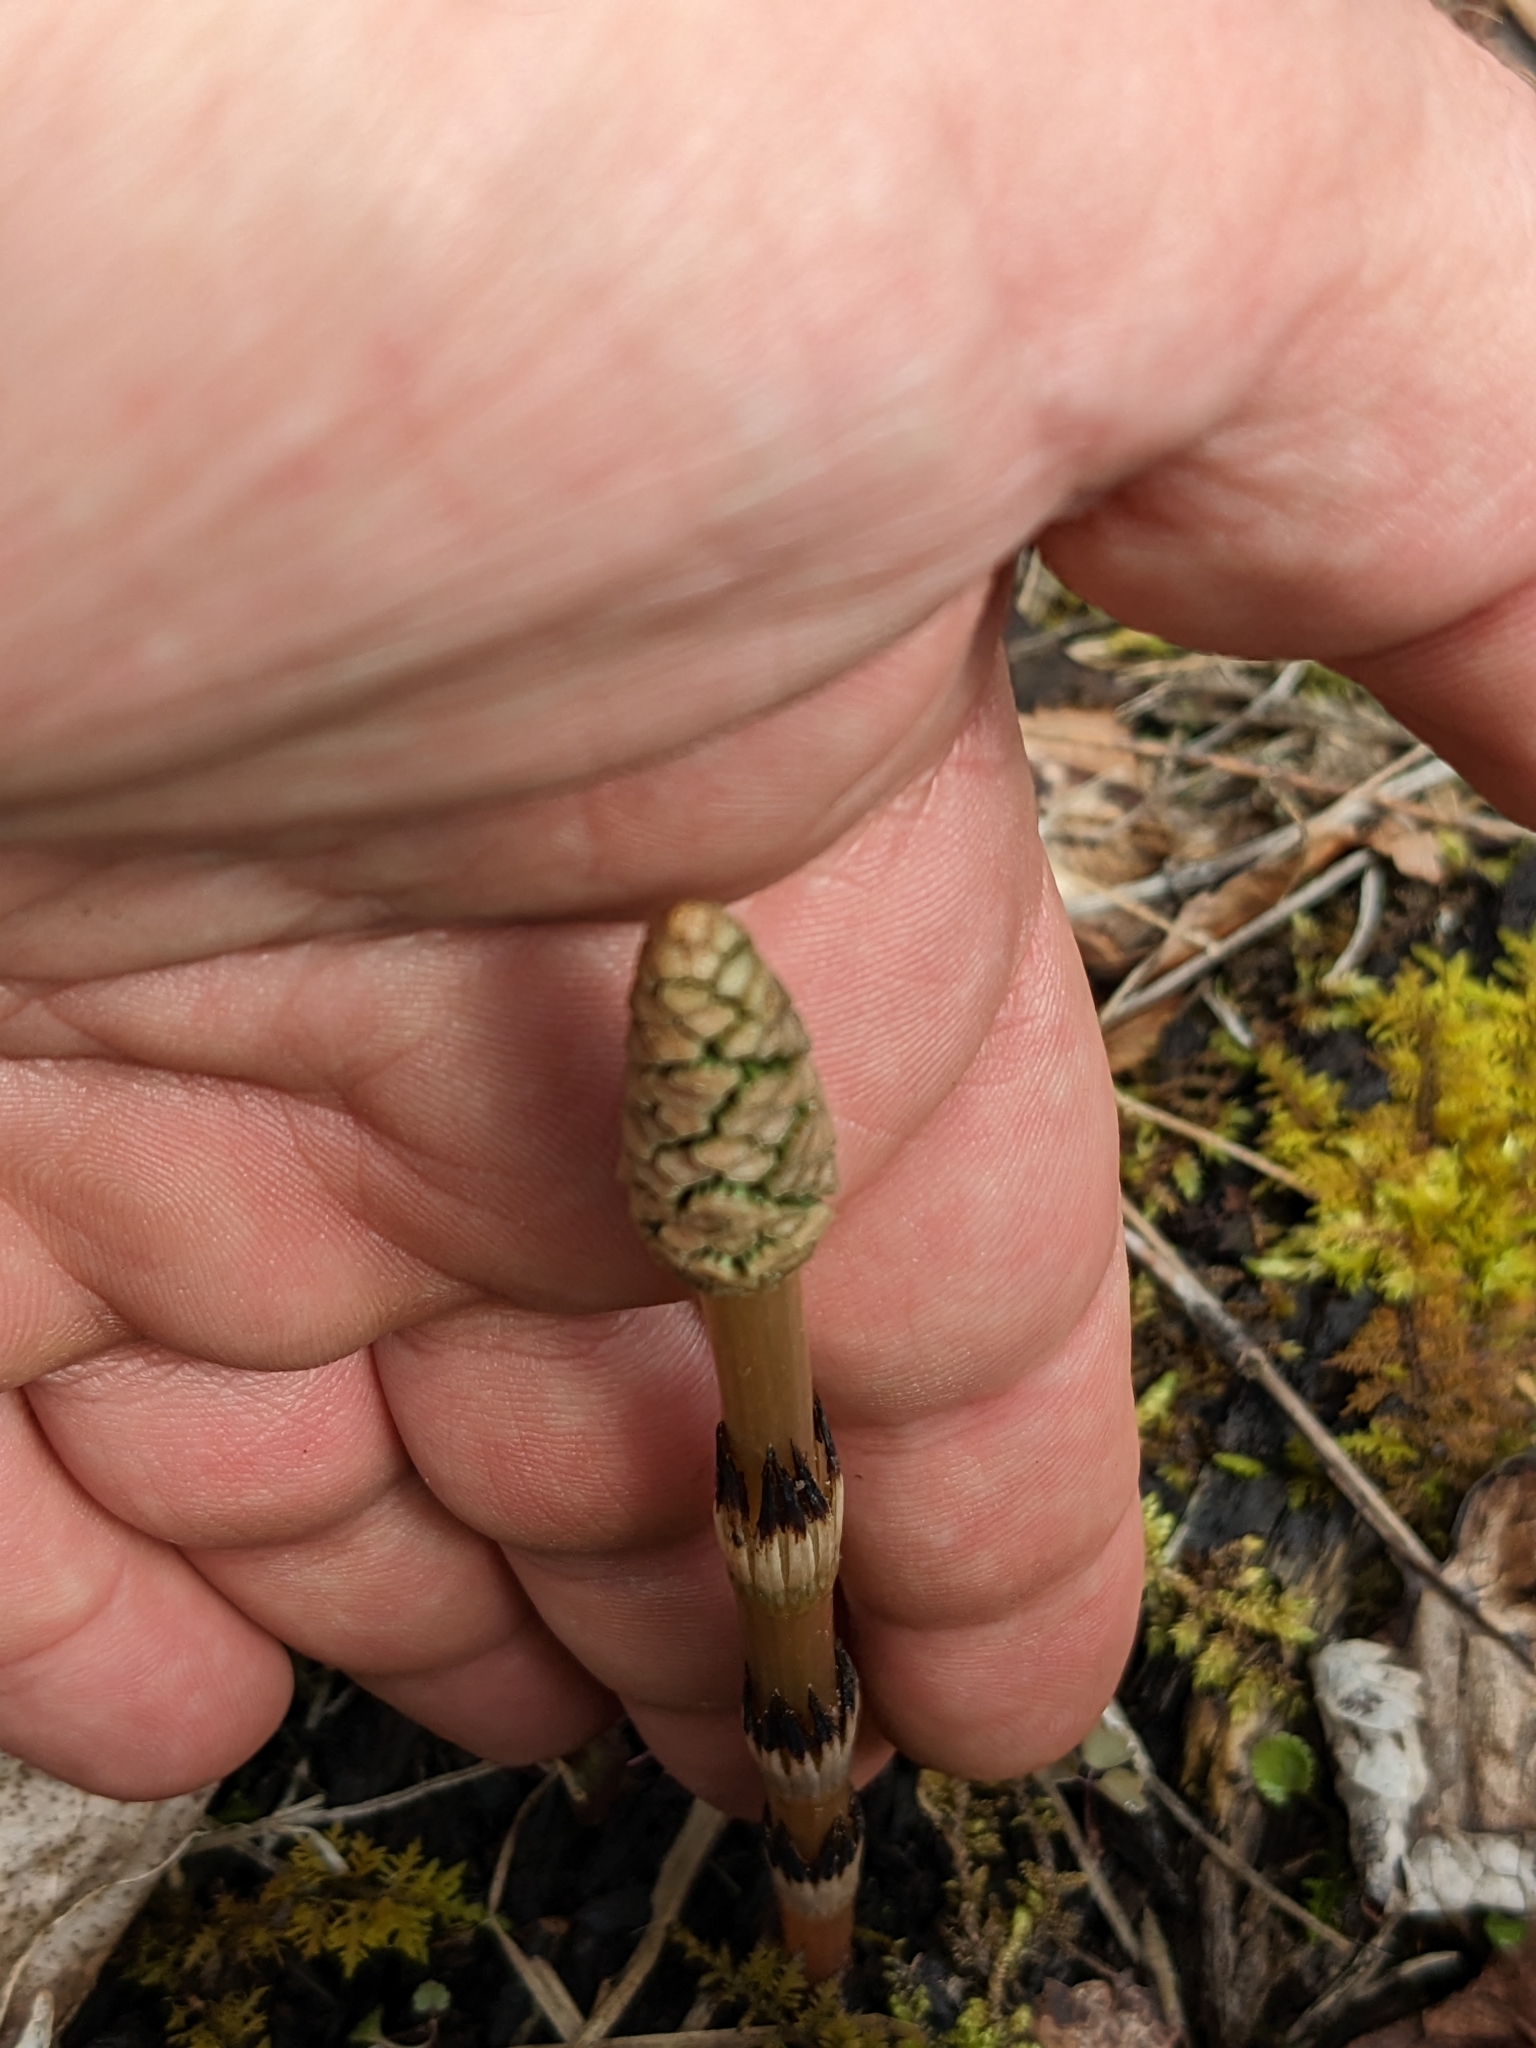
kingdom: Plantae
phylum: Tracheophyta
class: Polypodiopsida
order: Equisetales
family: Equisetaceae
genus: Equisetum
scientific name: Equisetum arvense
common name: Field horsetail
